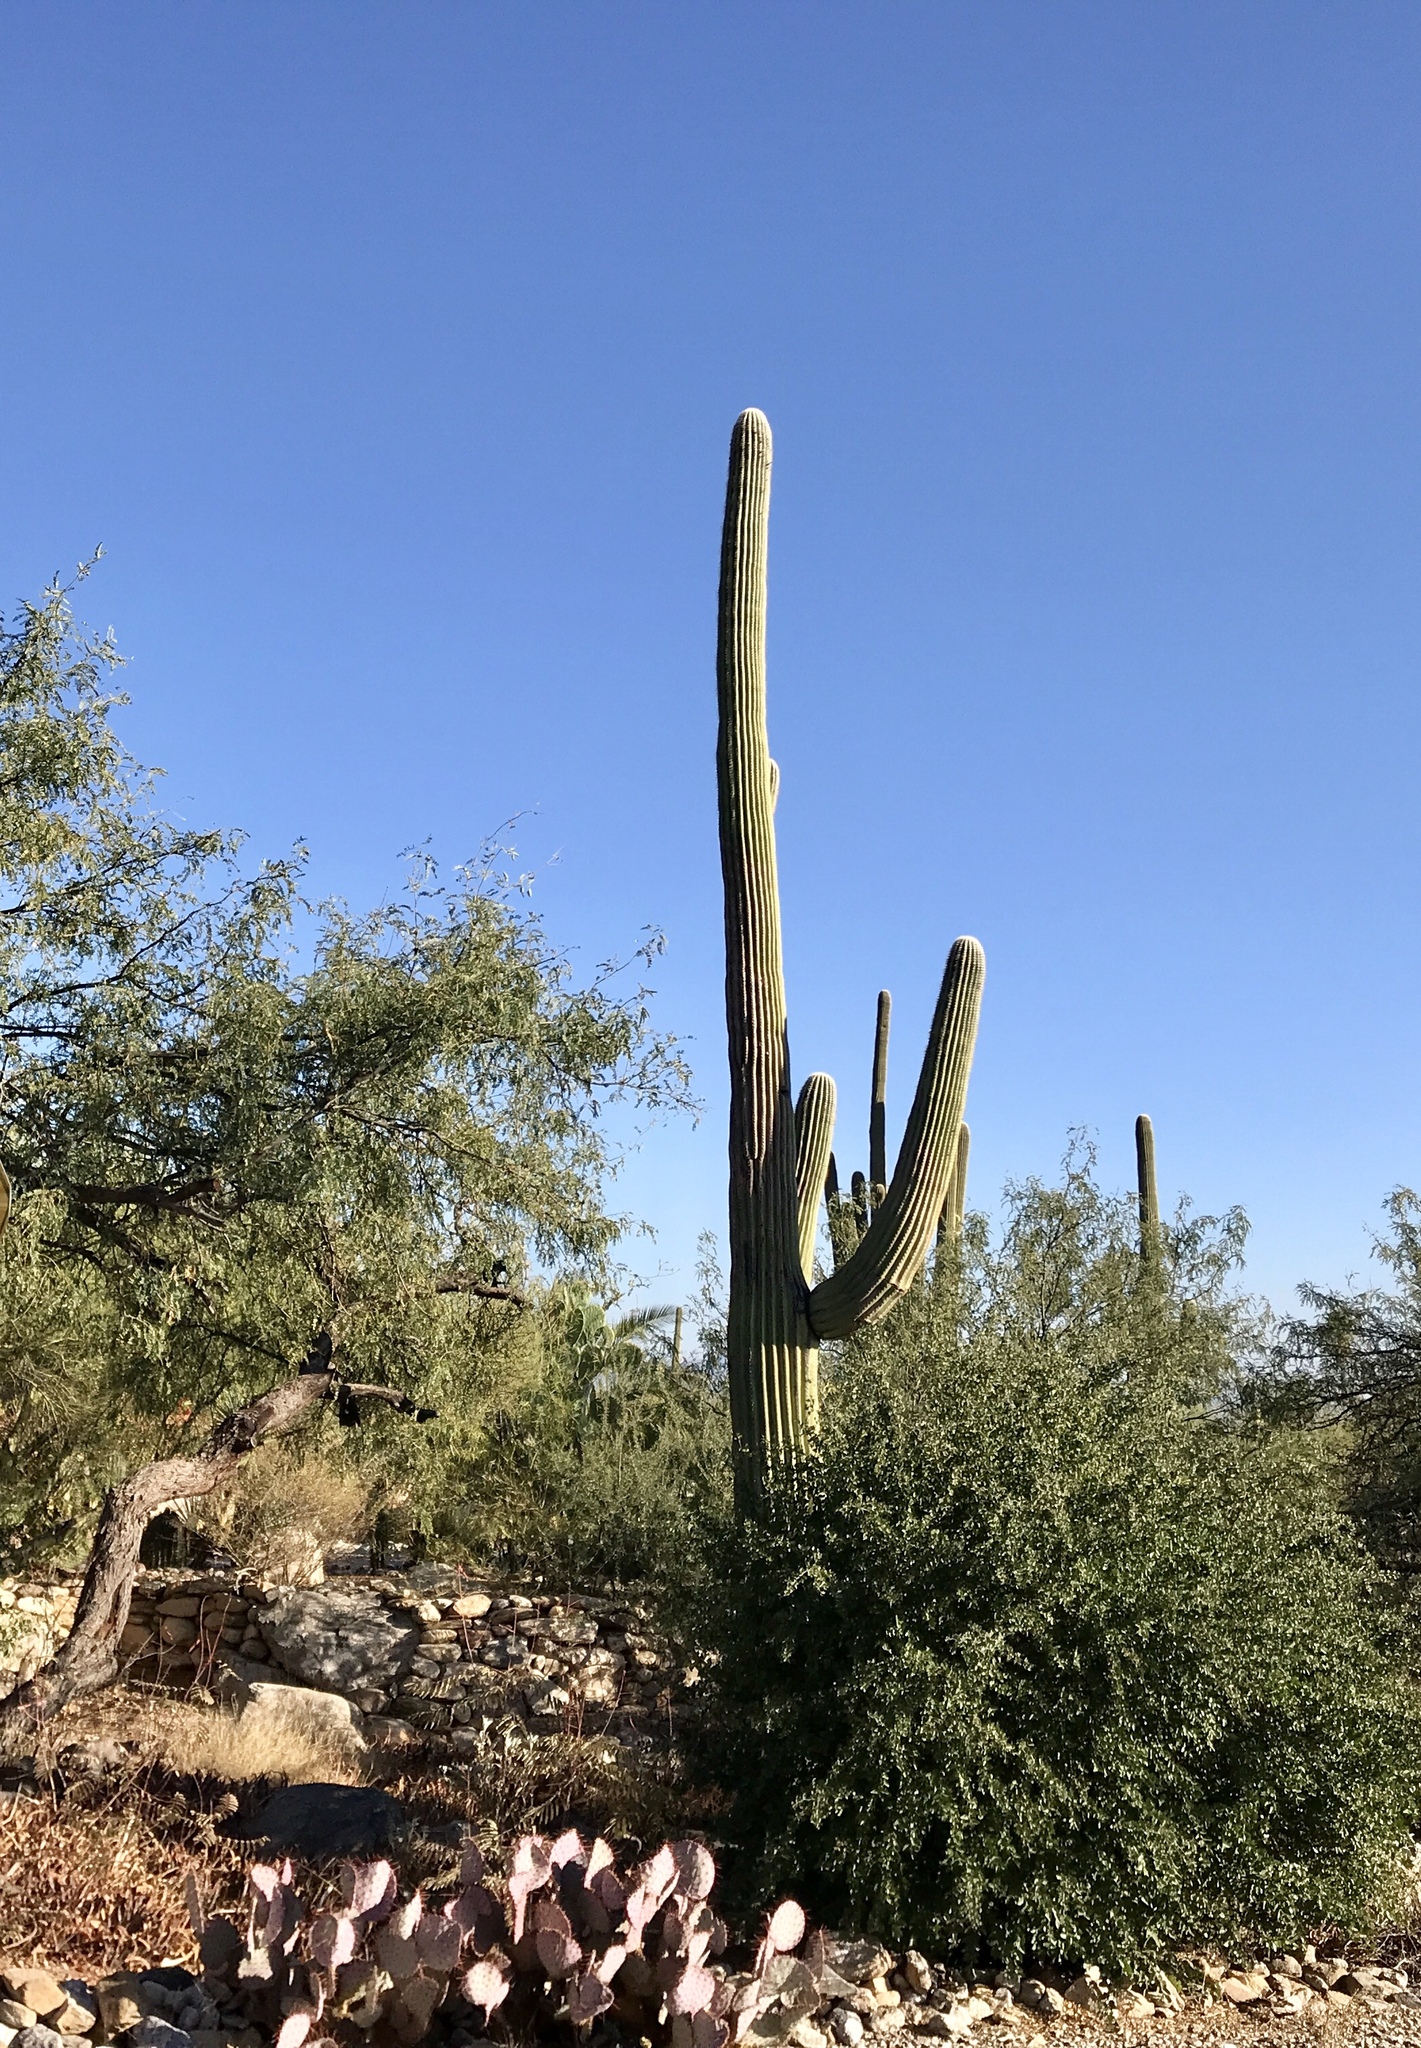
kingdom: Plantae
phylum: Tracheophyta
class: Magnoliopsida
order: Caryophyllales
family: Cactaceae
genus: Carnegiea
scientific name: Carnegiea gigantea
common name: Saguaro
